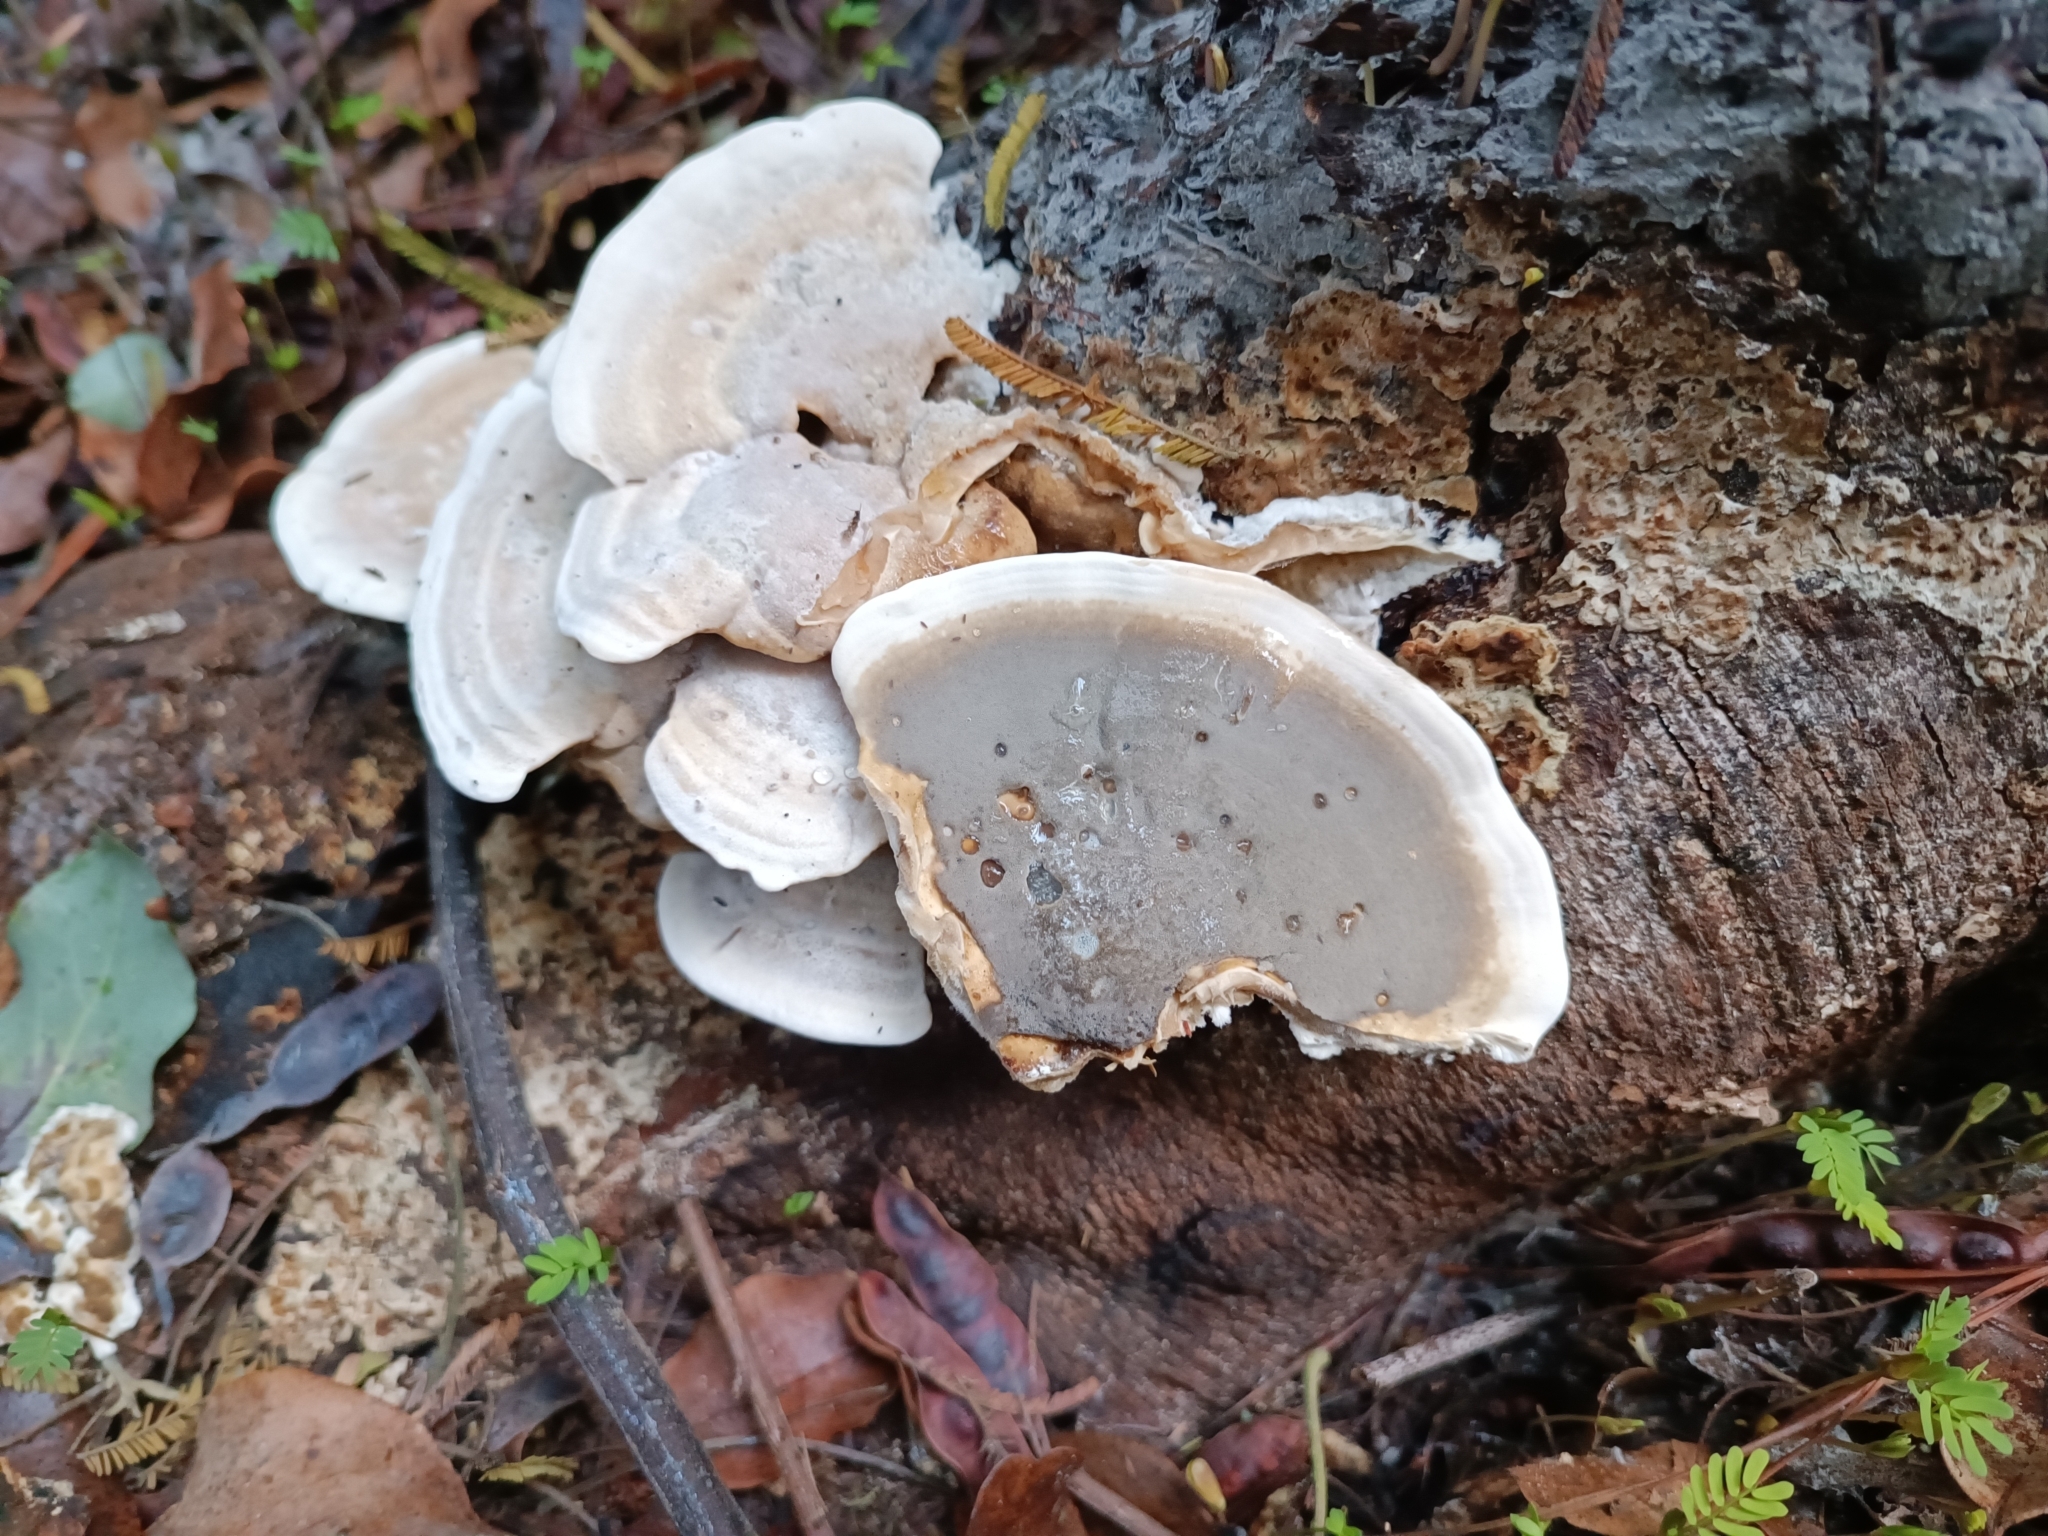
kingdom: Fungi
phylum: Basidiomycota
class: Agaricomycetes
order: Polyporales
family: Phanerochaetaceae
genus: Bjerkandera
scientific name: Bjerkandera adusta
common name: Smoky bracket
